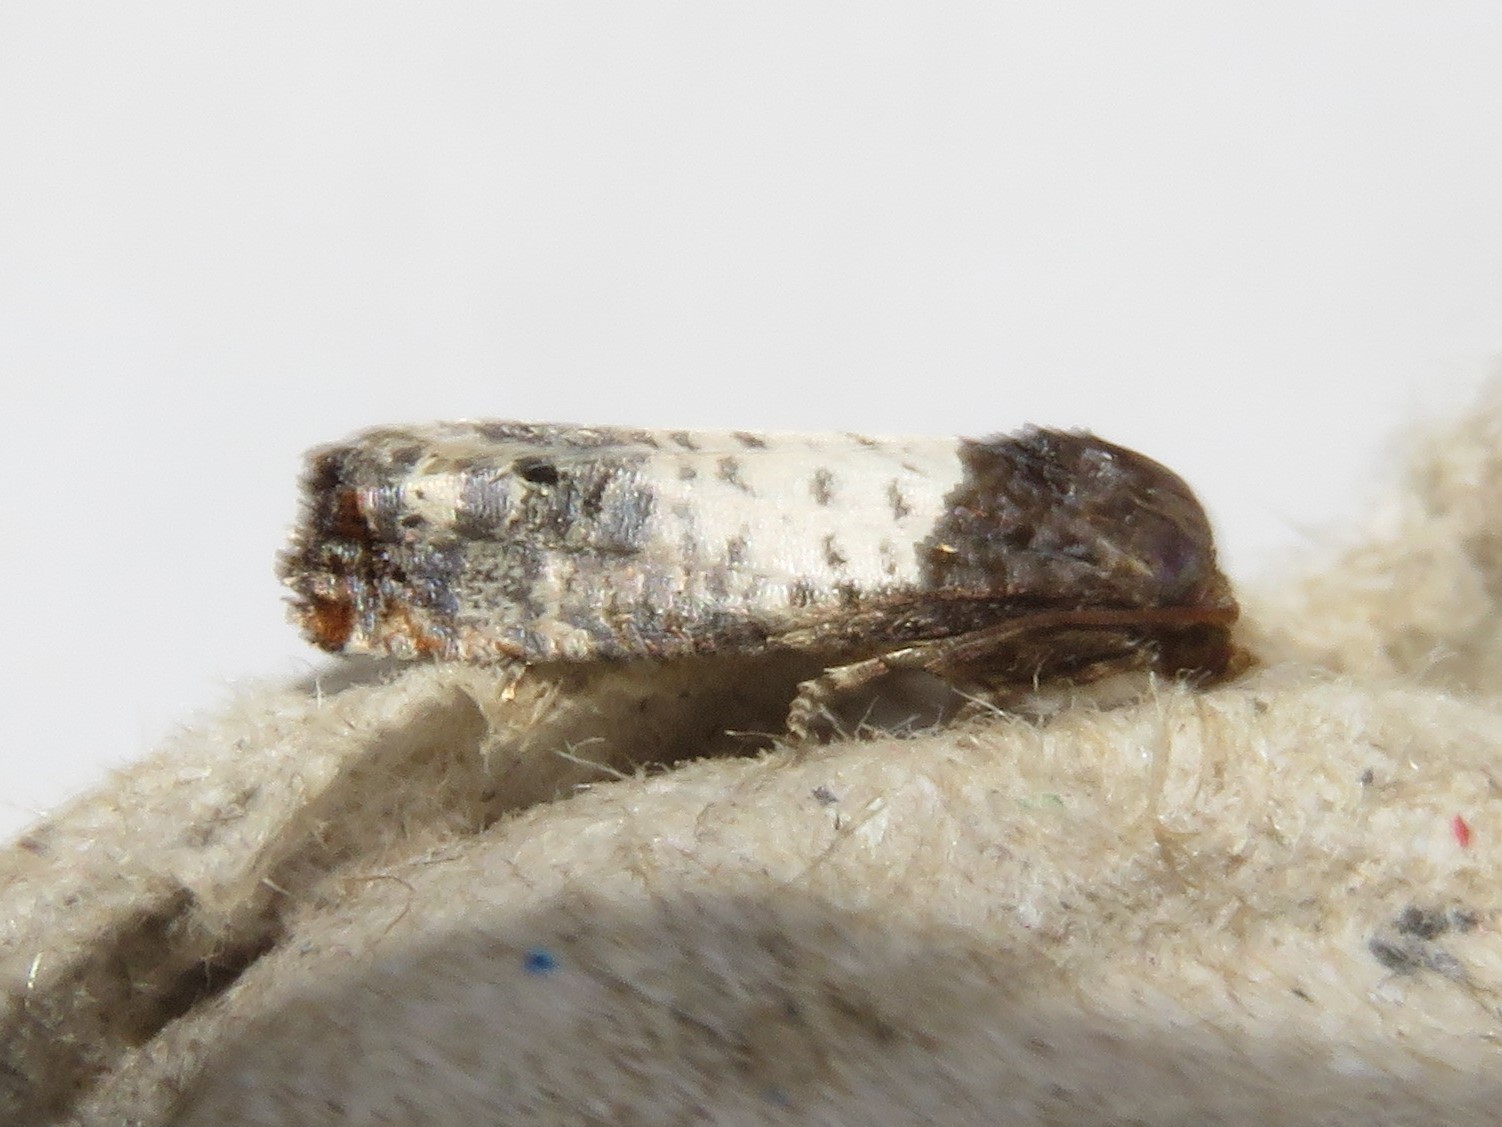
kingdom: Animalia
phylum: Arthropoda
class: Insecta
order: Lepidoptera
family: Tortricidae
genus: Epiblema
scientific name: Epiblema scudderiana
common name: Goldenrod gall moth
